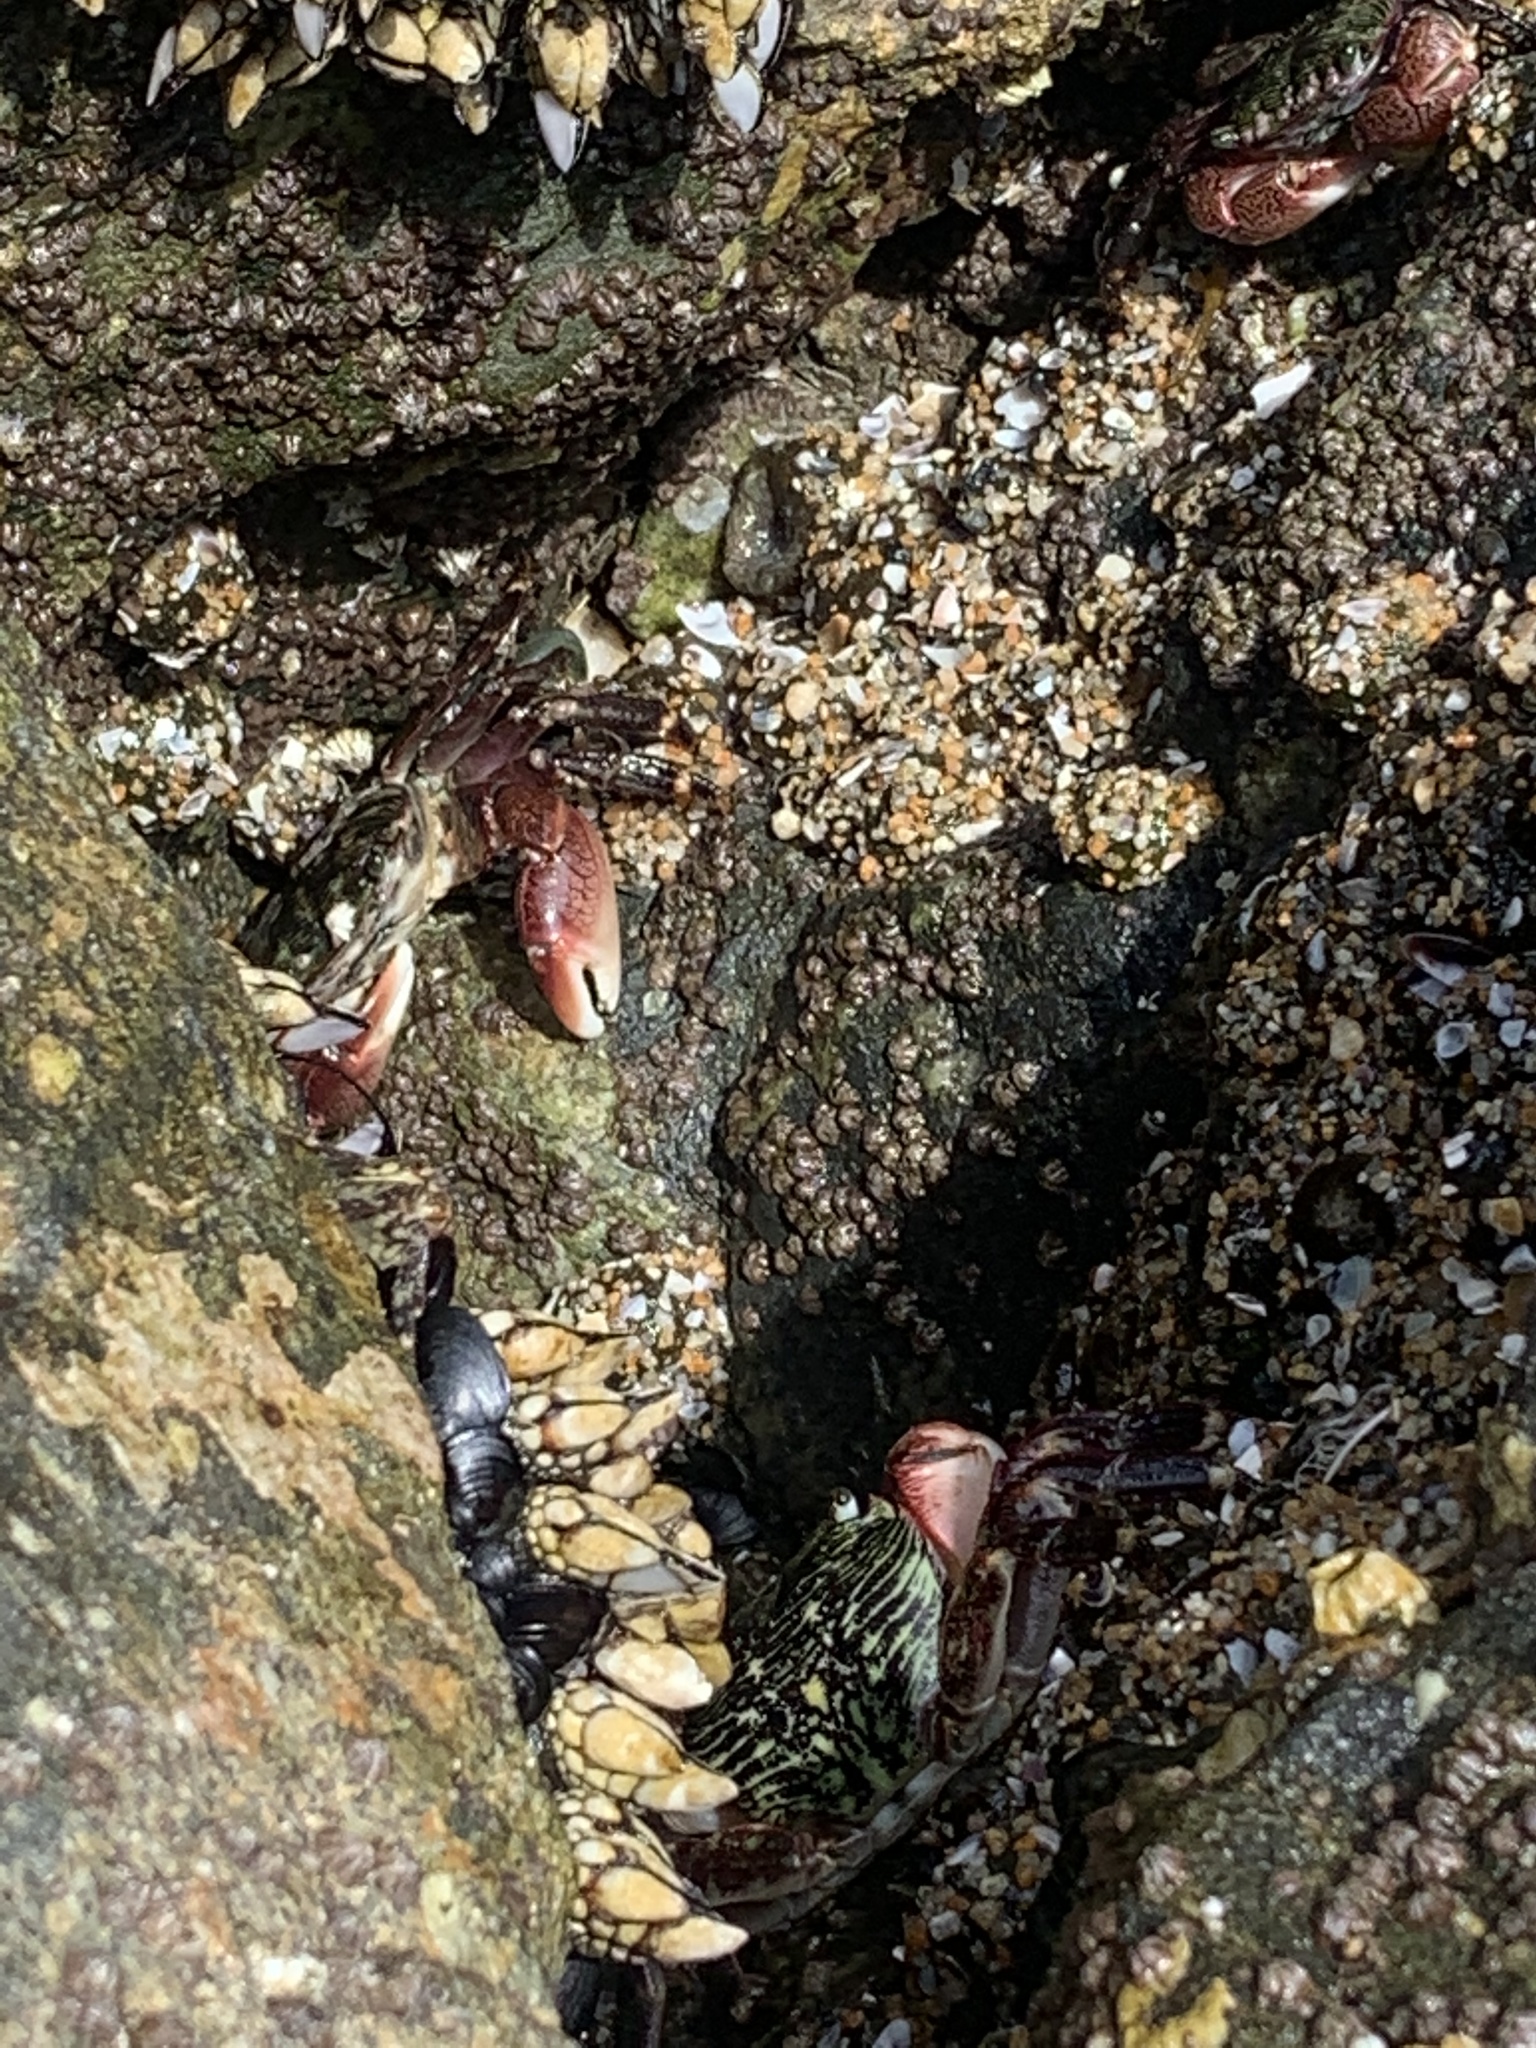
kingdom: Animalia
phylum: Arthropoda
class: Malacostraca
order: Decapoda
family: Grapsidae
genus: Pachygrapsus
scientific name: Pachygrapsus crassipes
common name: Striped shore crab
